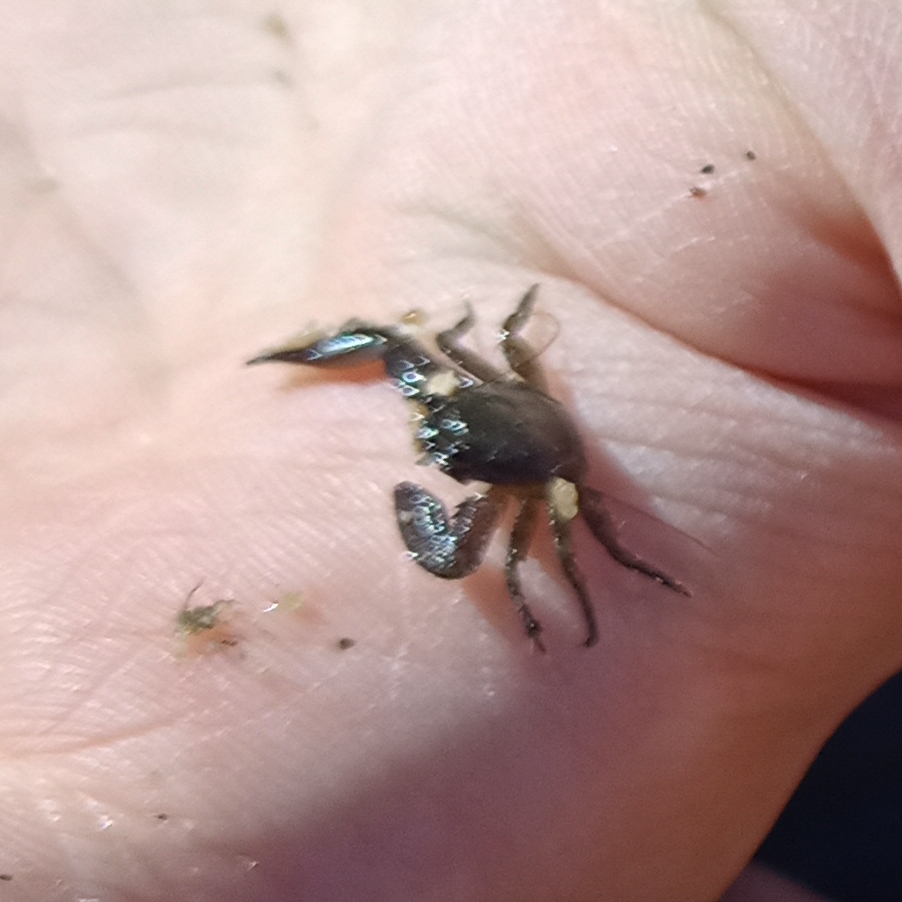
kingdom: Animalia
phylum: Arthropoda
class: Malacostraca
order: Decapoda
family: Porcellanidae
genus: Petrolisthes
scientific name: Petrolisthes armatus
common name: Green porcelain crab
